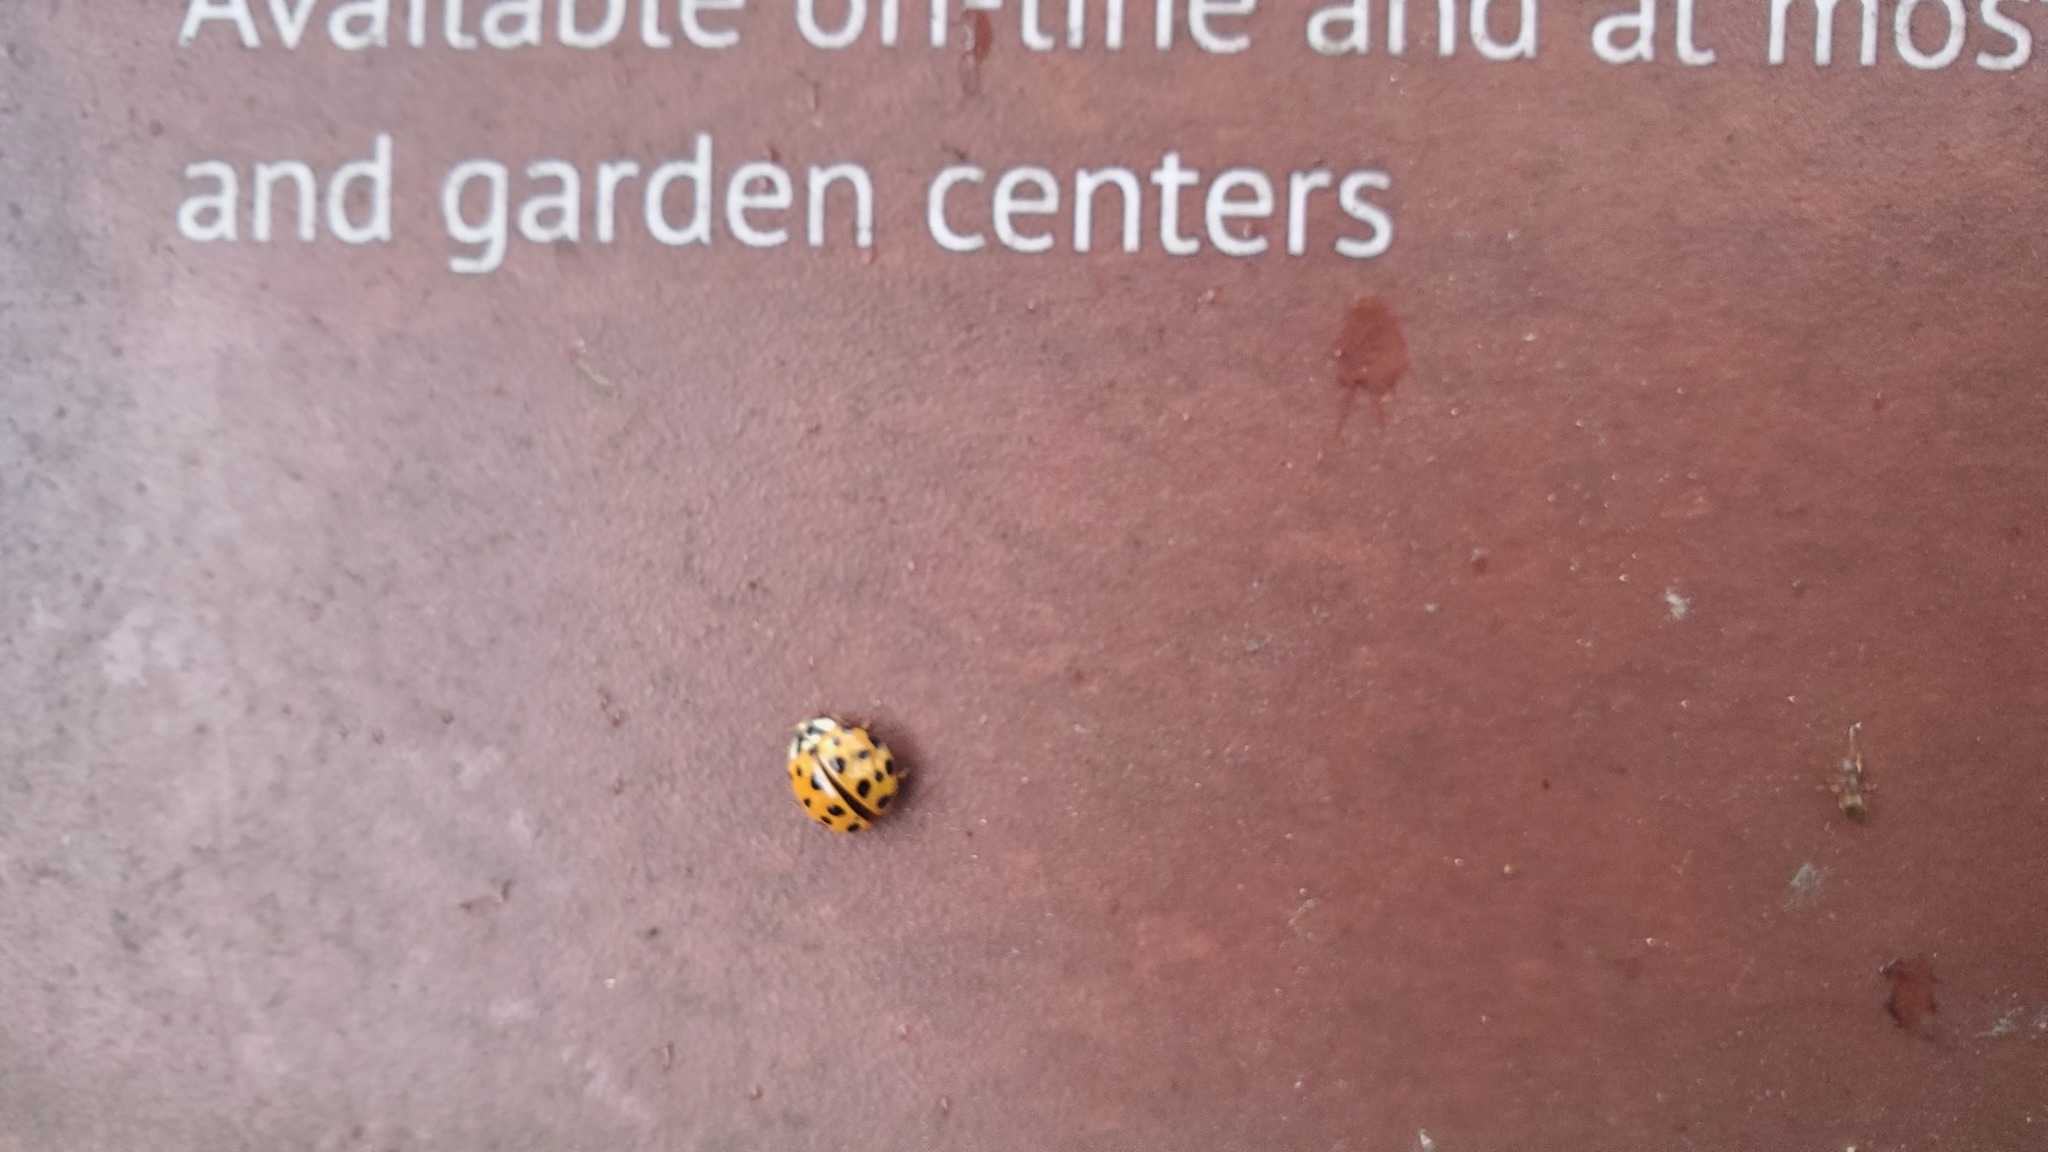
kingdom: Animalia
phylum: Arthropoda
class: Insecta
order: Coleoptera
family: Coccinellidae
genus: Harmonia
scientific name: Harmonia axyridis
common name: Harlequin ladybird
